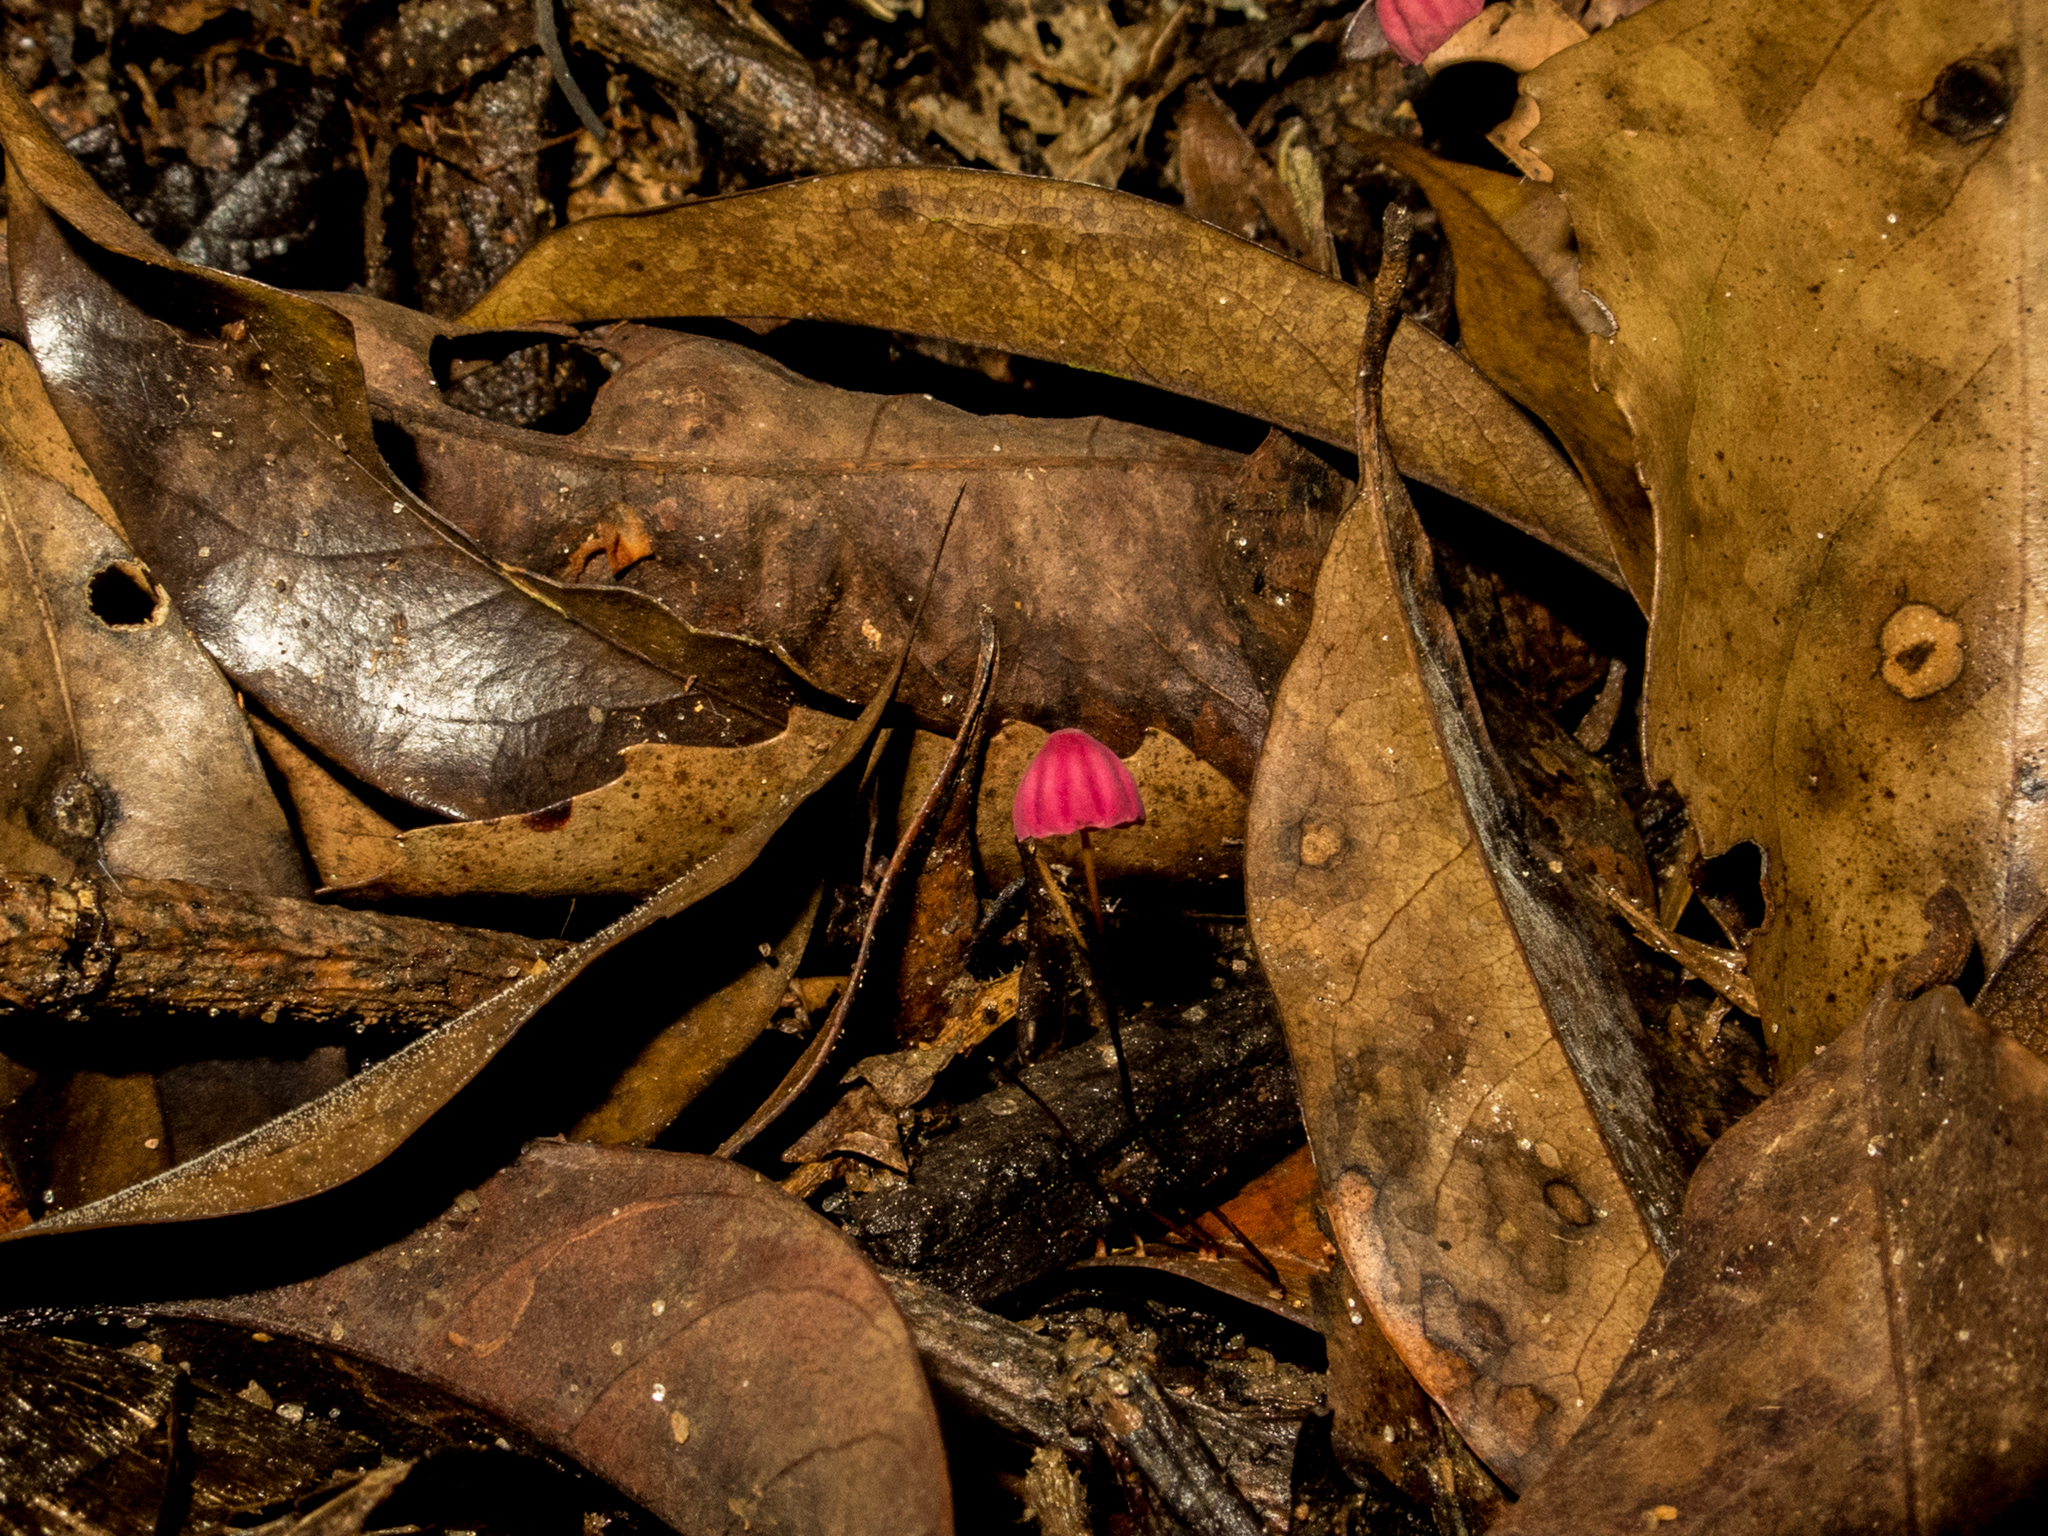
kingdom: Fungi
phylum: Basidiomycota
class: Agaricomycetes
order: Agaricales
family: Marasmiaceae
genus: Marasmius
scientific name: Marasmius haematocephalus
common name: Purple pinwheel
